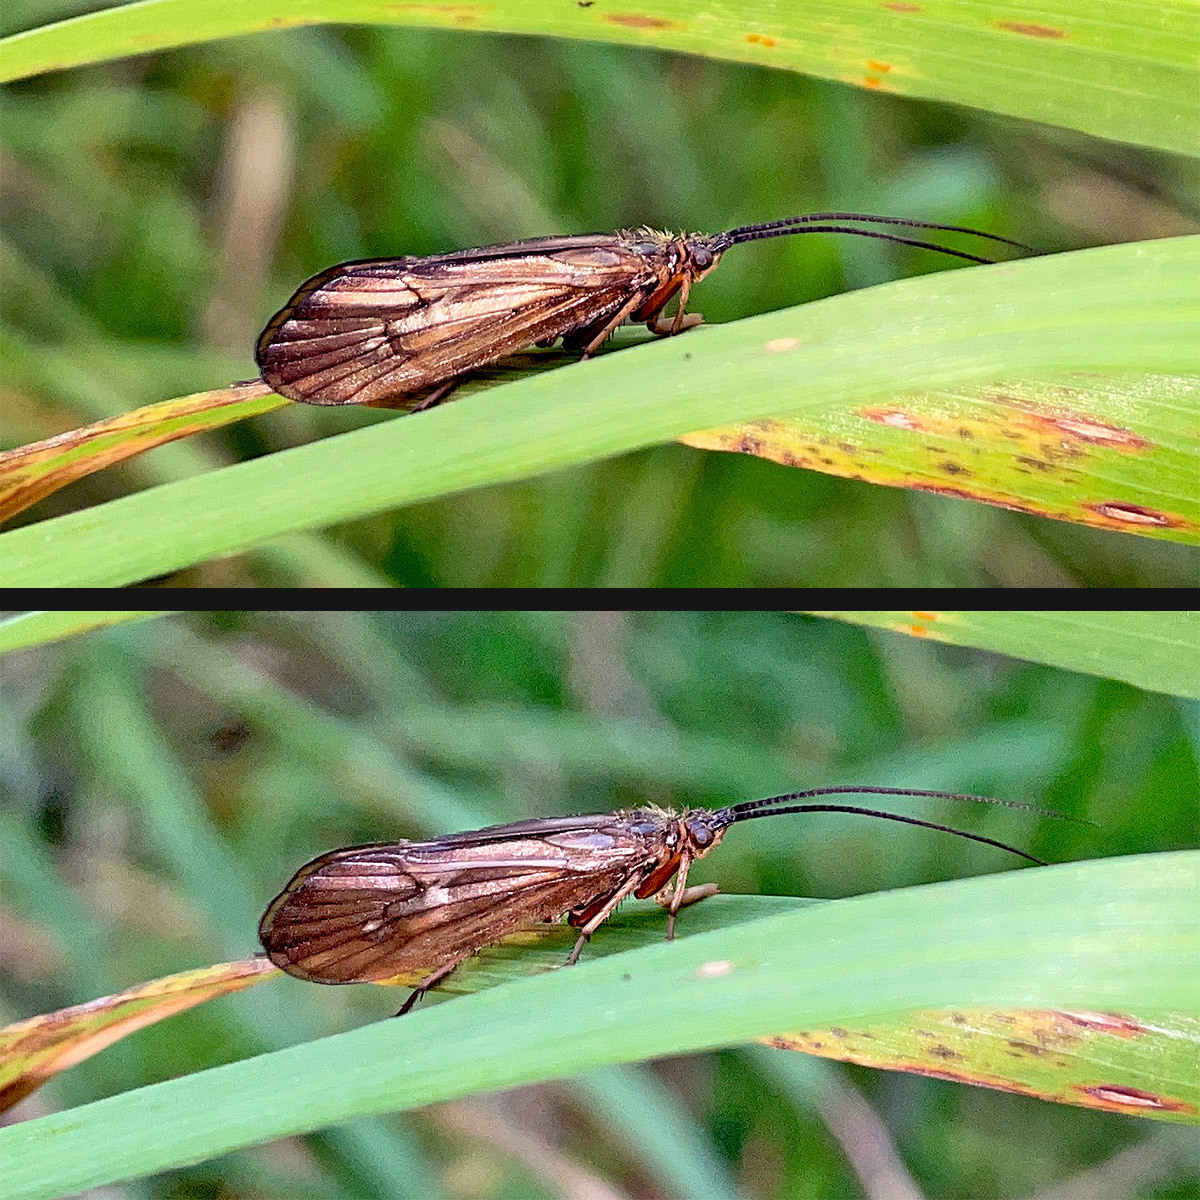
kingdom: Animalia
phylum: Arthropoda
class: Insecta
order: Trichoptera
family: Limnephilidae
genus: Anabolia
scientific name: Anabolia nervosa
